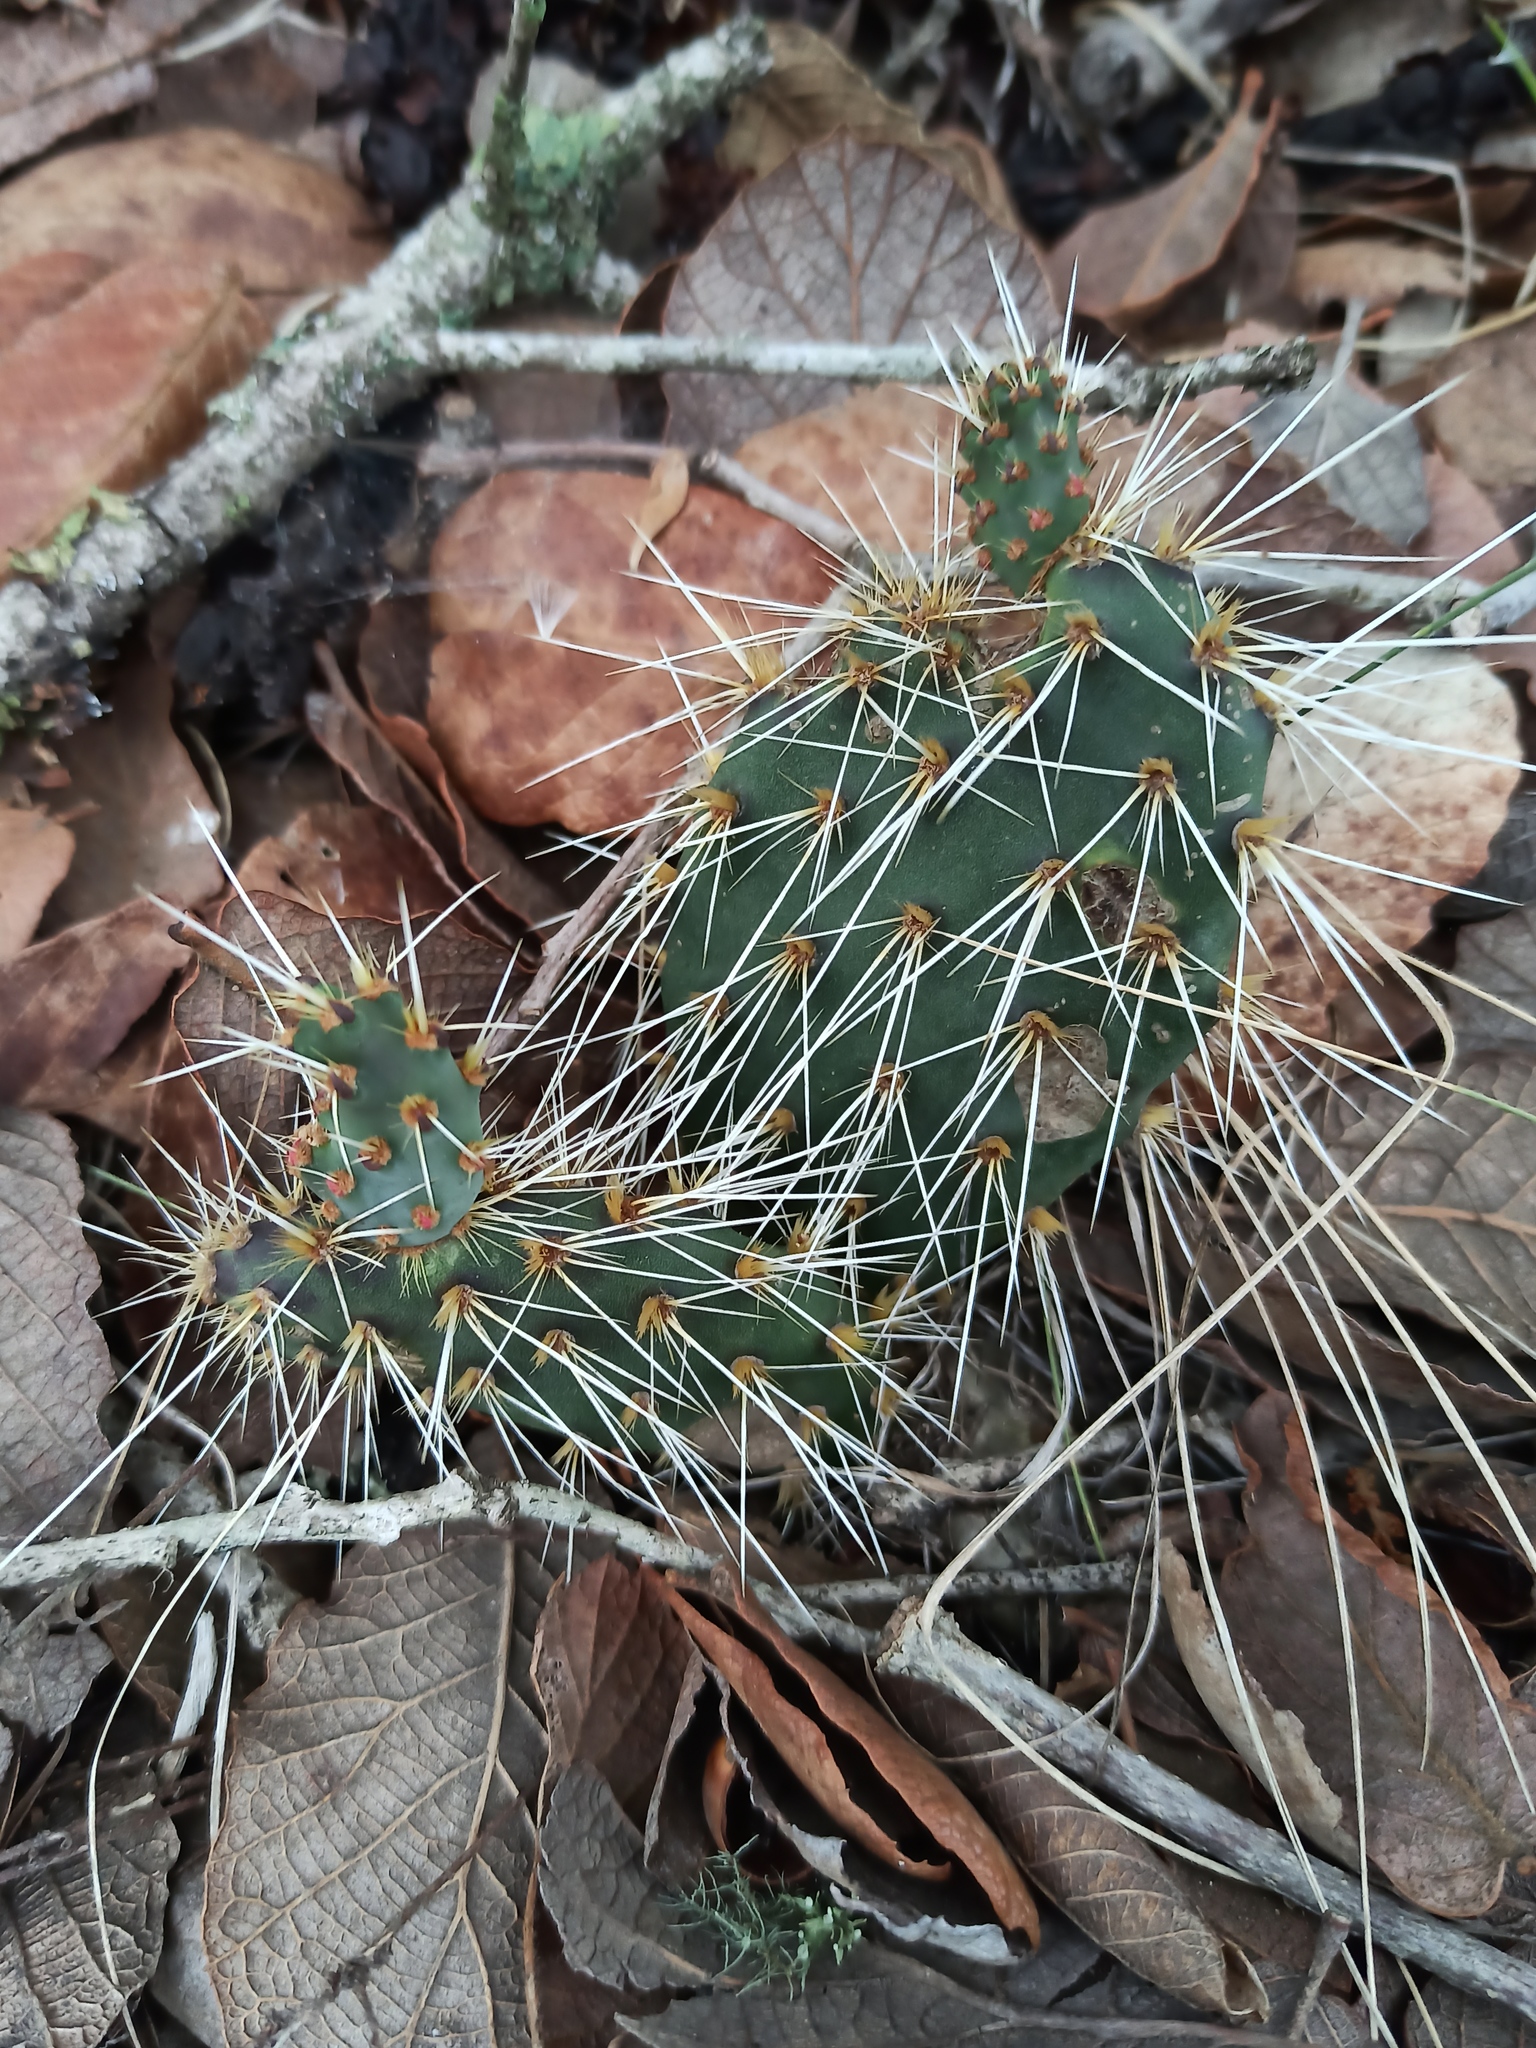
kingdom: Plantae
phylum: Tracheophyta
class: Magnoliopsida
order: Caryophyllales
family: Cactaceae
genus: Opuntia
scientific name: Opuntia scheeri
